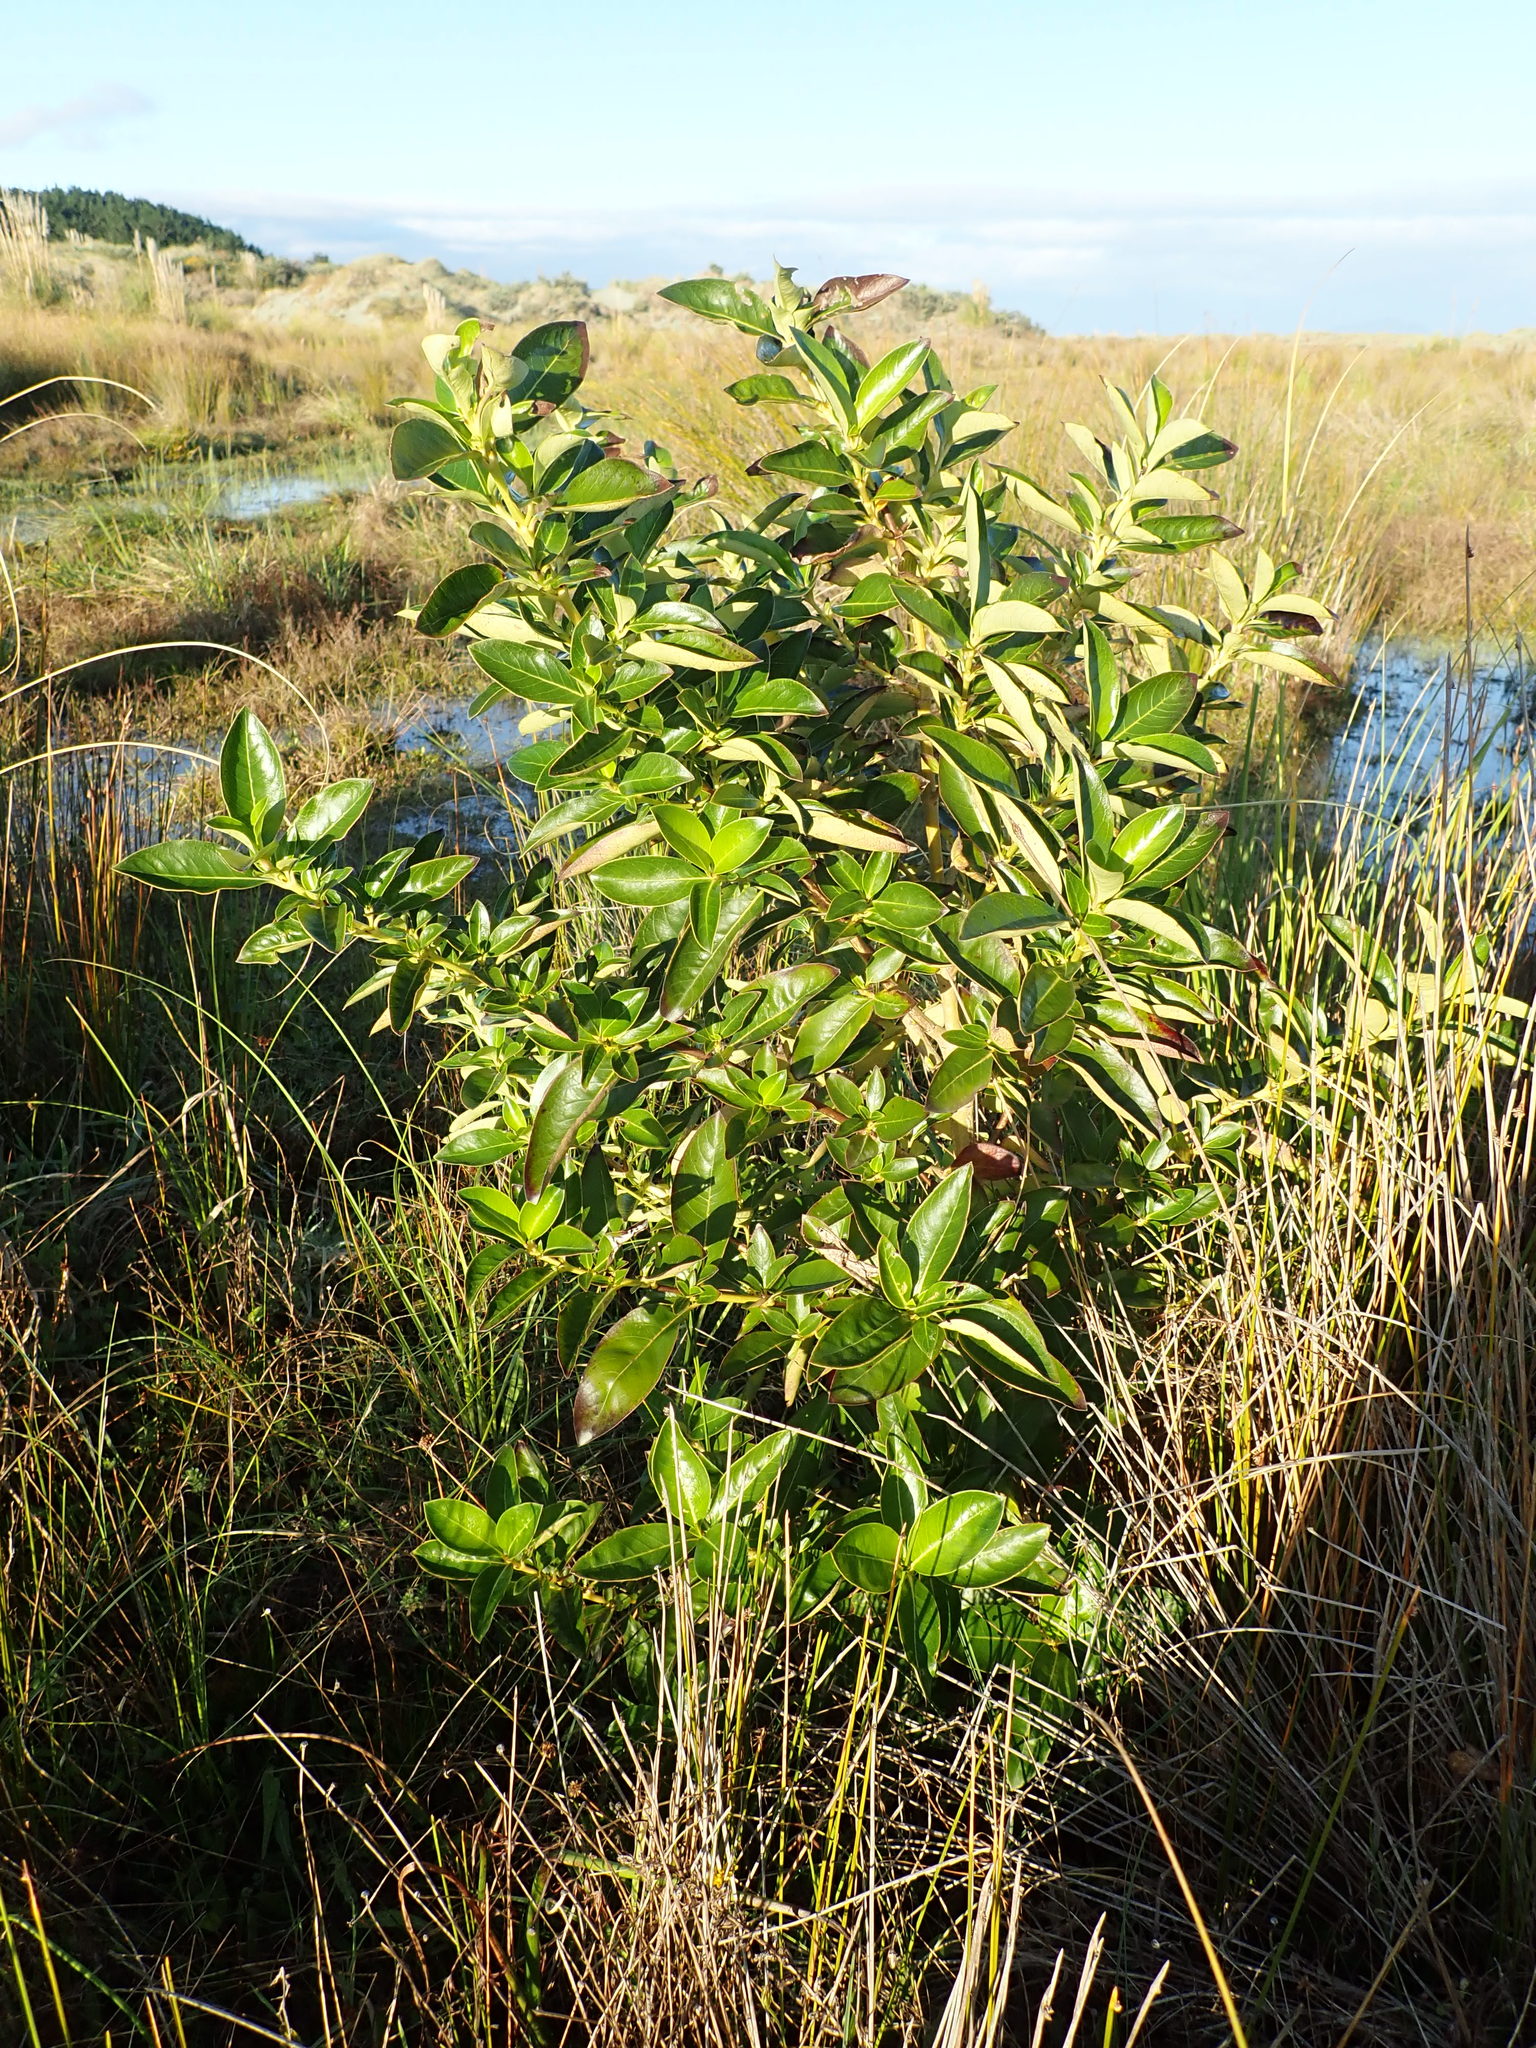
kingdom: Plantae
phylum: Tracheophyta
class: Magnoliopsida
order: Gentianales
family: Rubiaceae
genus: Coprosma
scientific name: Coprosma robusta
